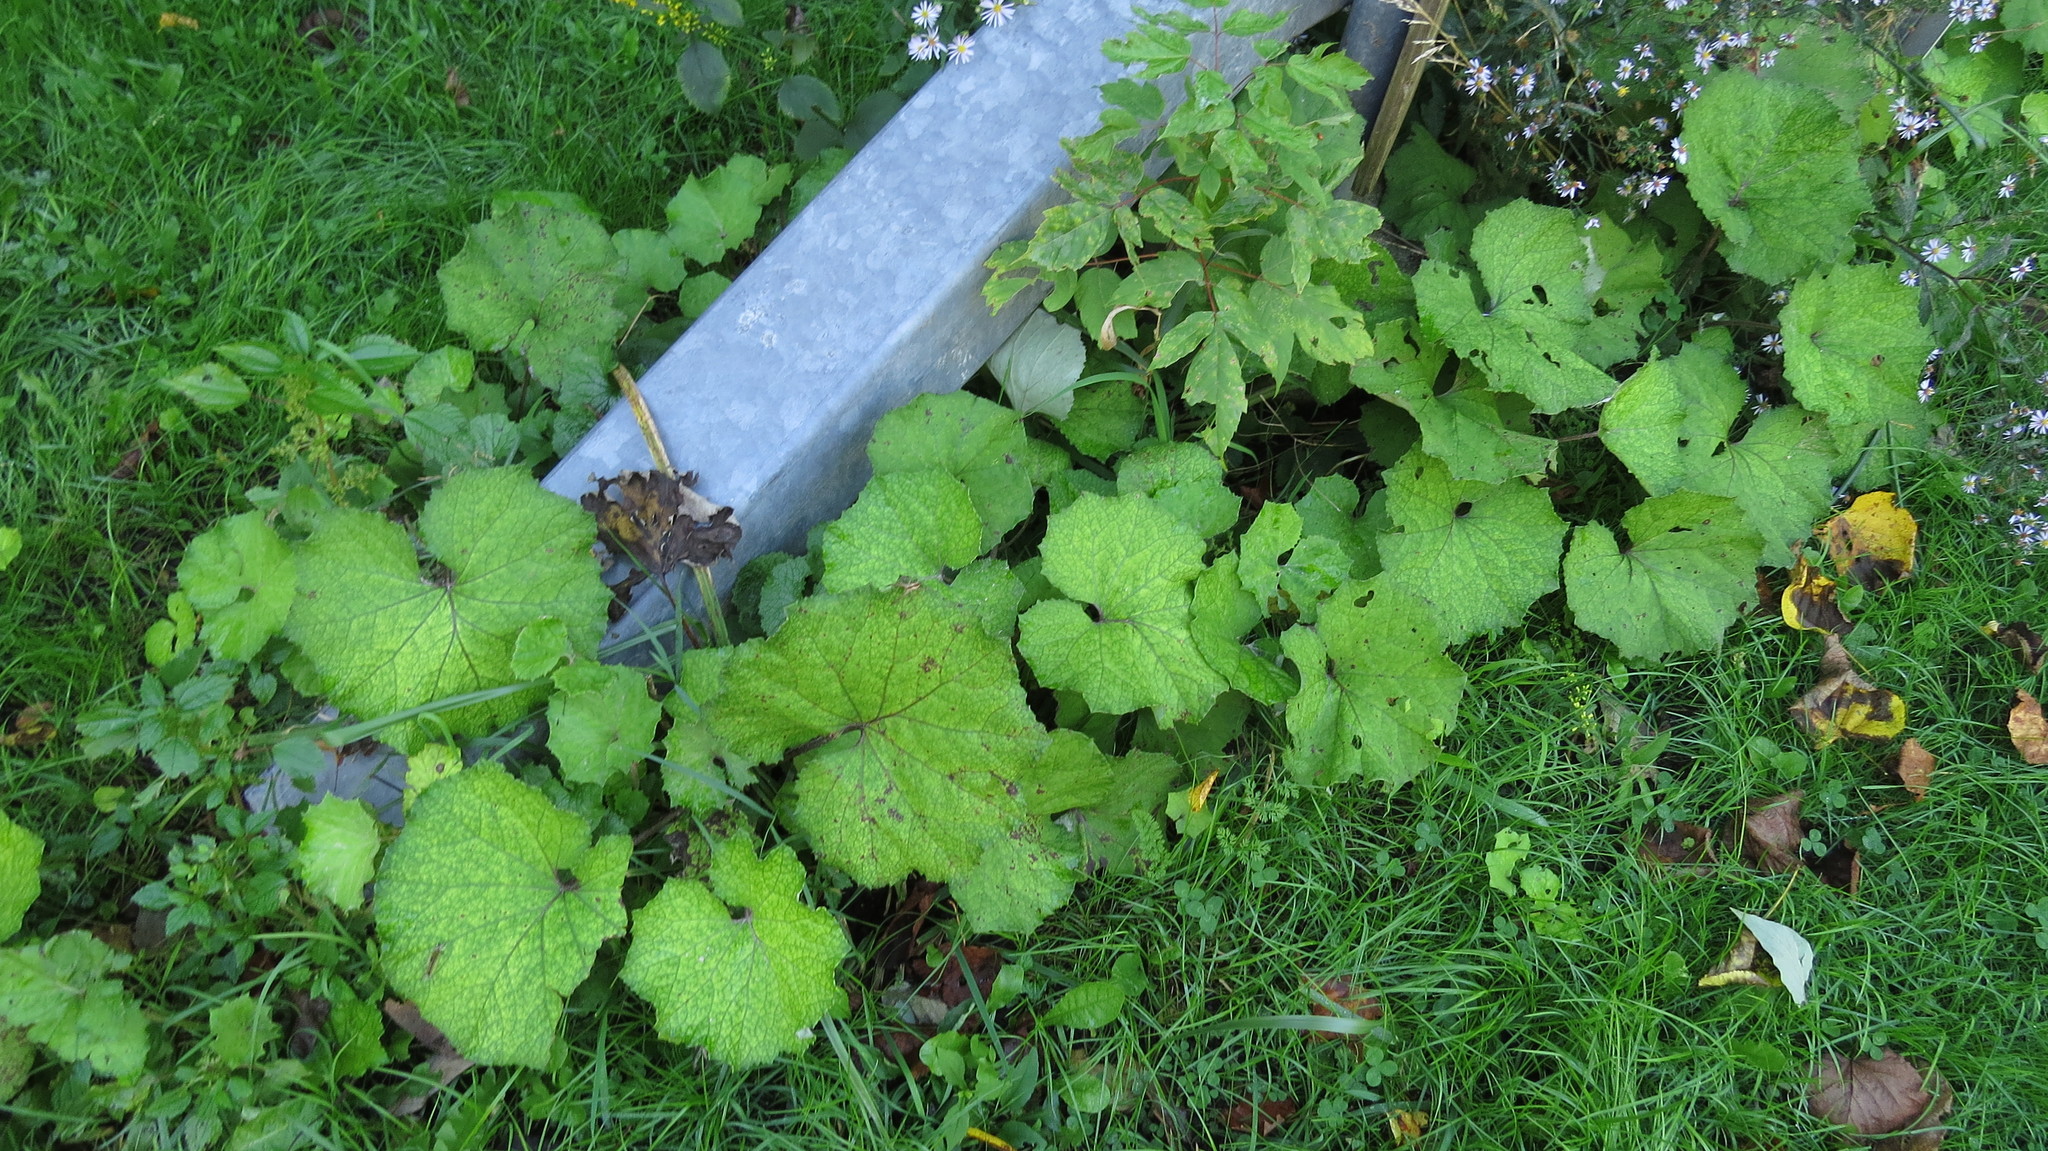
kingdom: Plantae
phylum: Tracheophyta
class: Magnoliopsida
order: Asterales
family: Asteraceae
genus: Tussilago
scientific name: Tussilago farfara
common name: Coltsfoot
